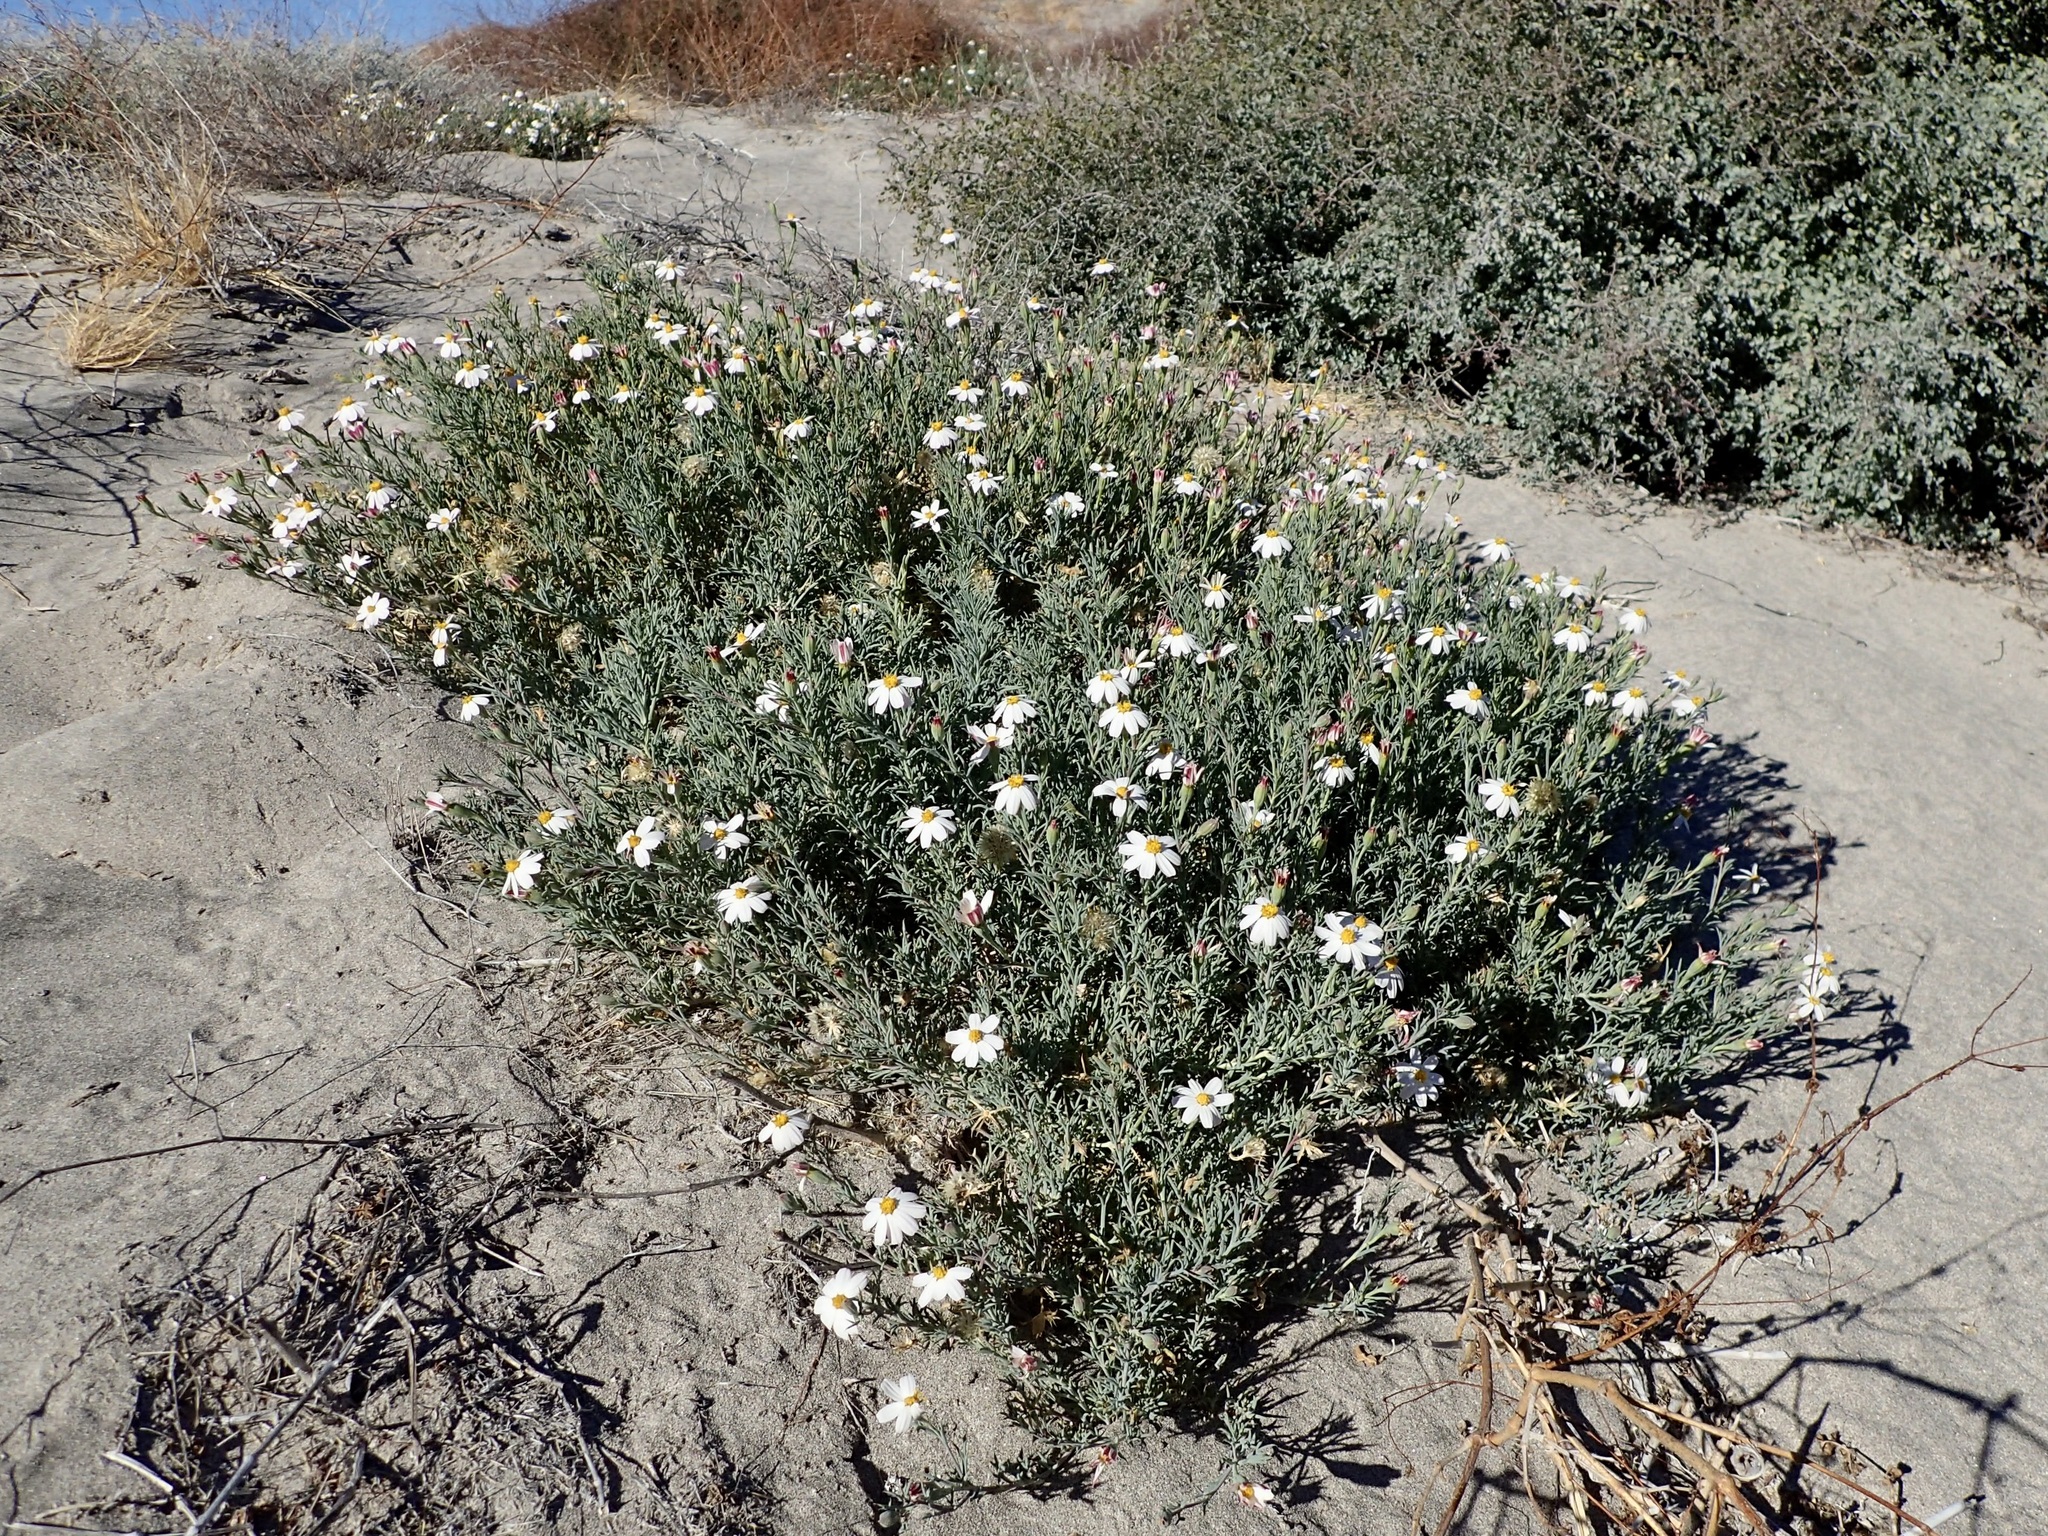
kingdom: Plantae
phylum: Tracheophyta
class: Magnoliopsida
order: Asterales
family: Asteraceae
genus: Nicolletia
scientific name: Nicolletia trifida
